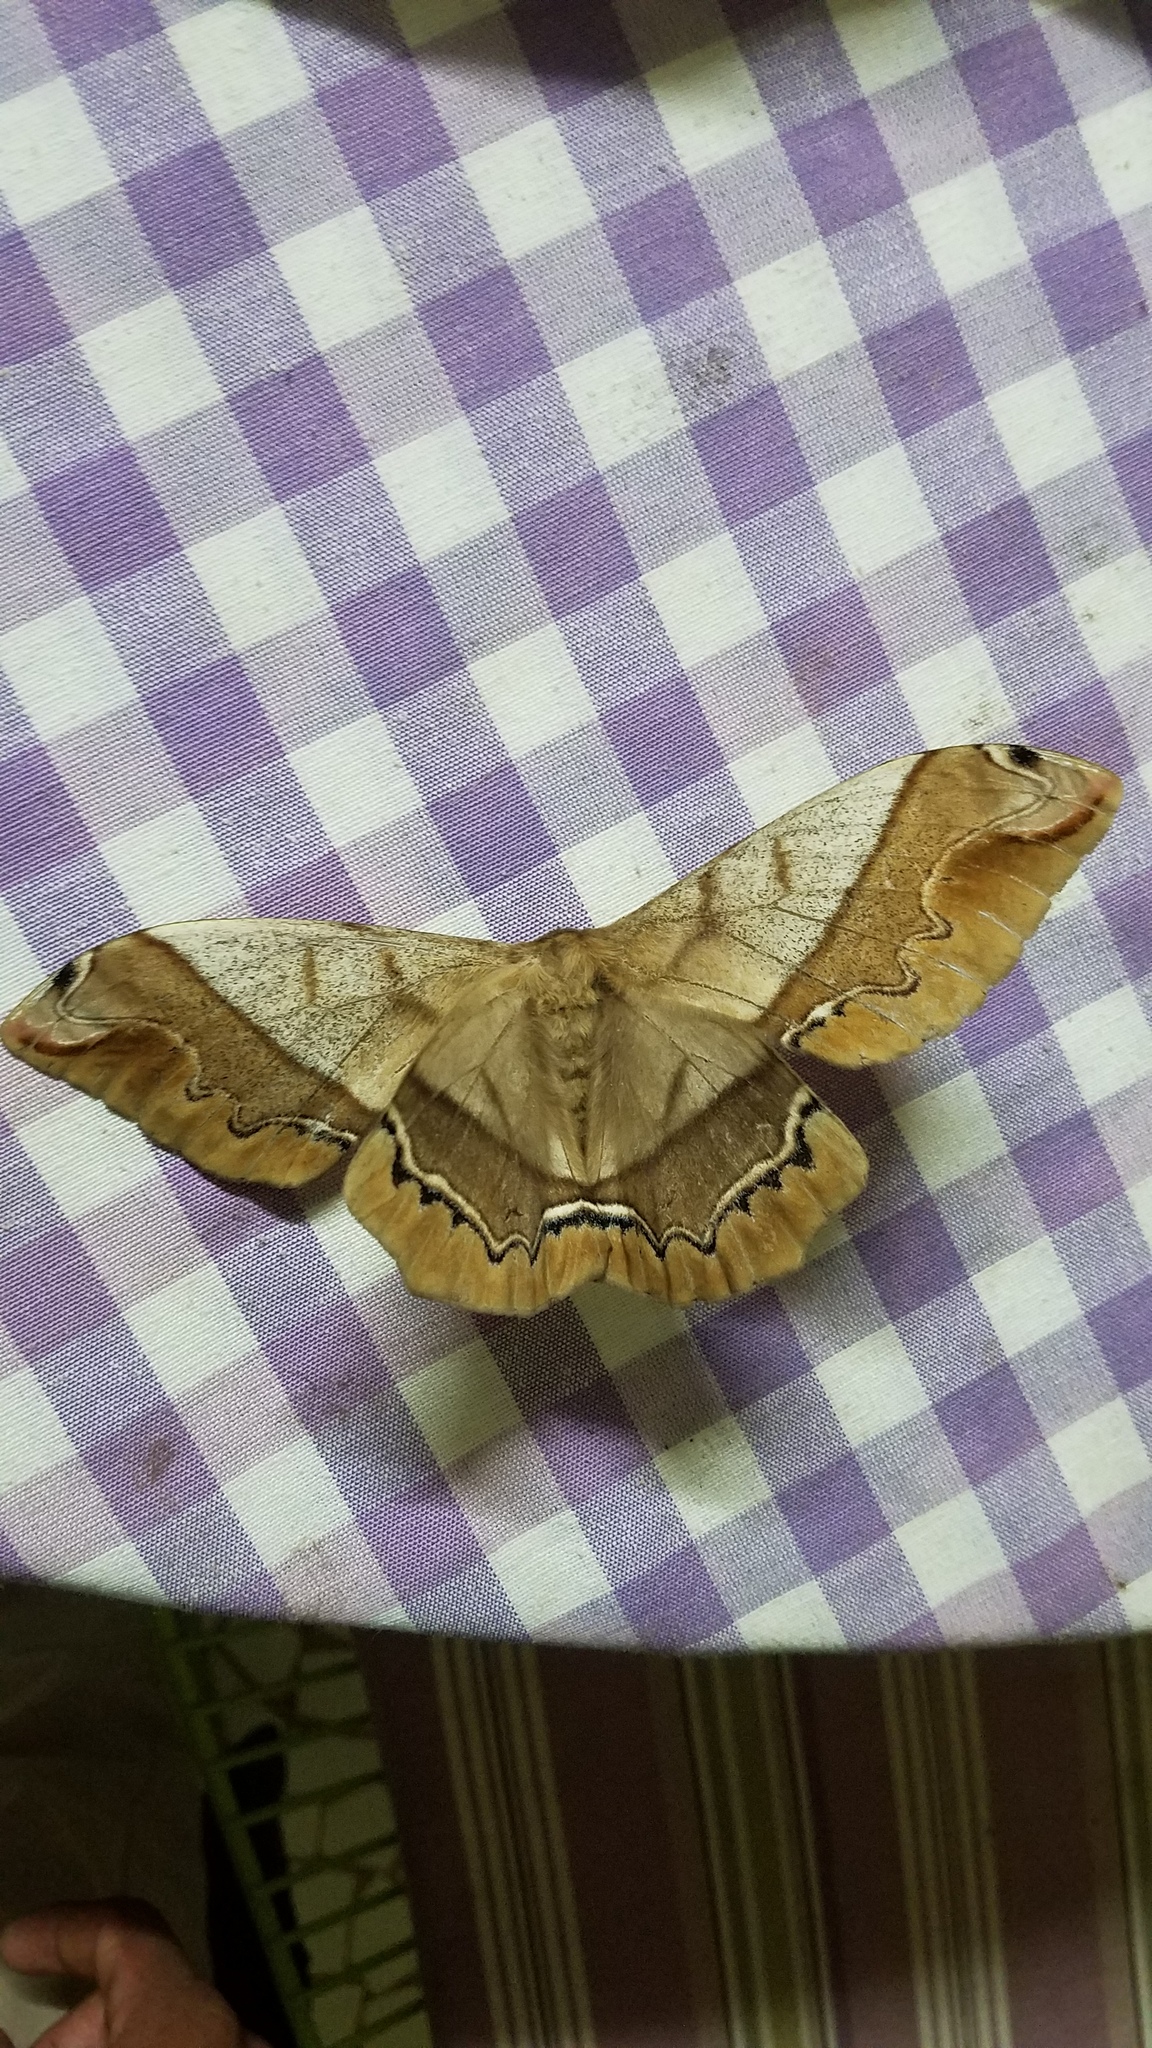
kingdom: Animalia
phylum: Arthropoda
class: Insecta
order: Lepidoptera
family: Saturniidae
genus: Arsenura
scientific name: Arsenura armida
